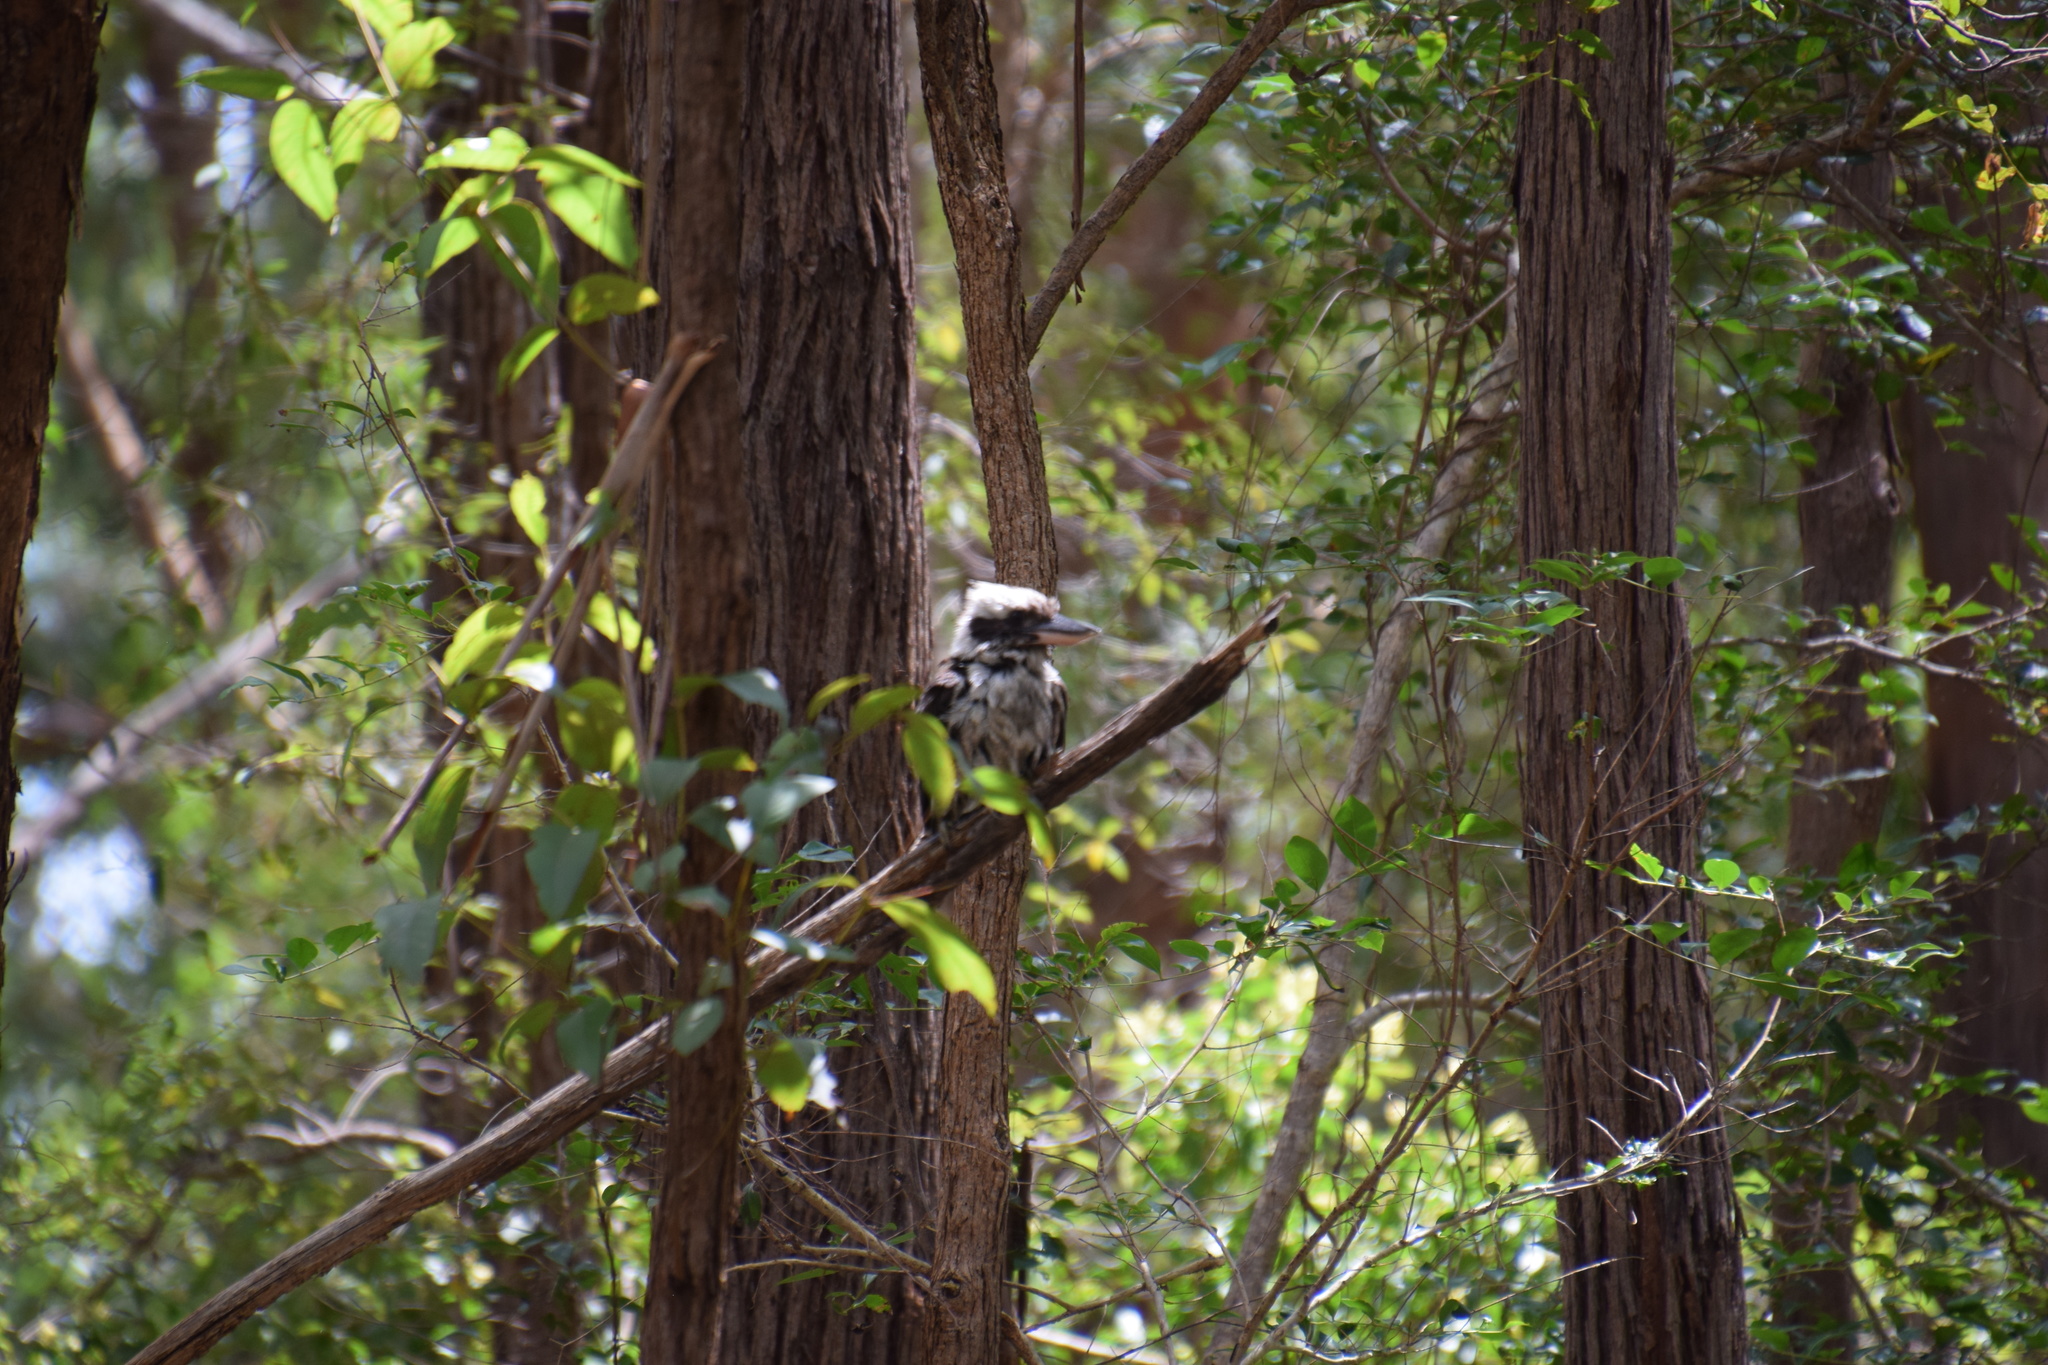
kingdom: Animalia
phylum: Chordata
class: Aves
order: Coraciiformes
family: Alcedinidae
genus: Dacelo
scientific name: Dacelo novaeguineae
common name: Laughing kookaburra
